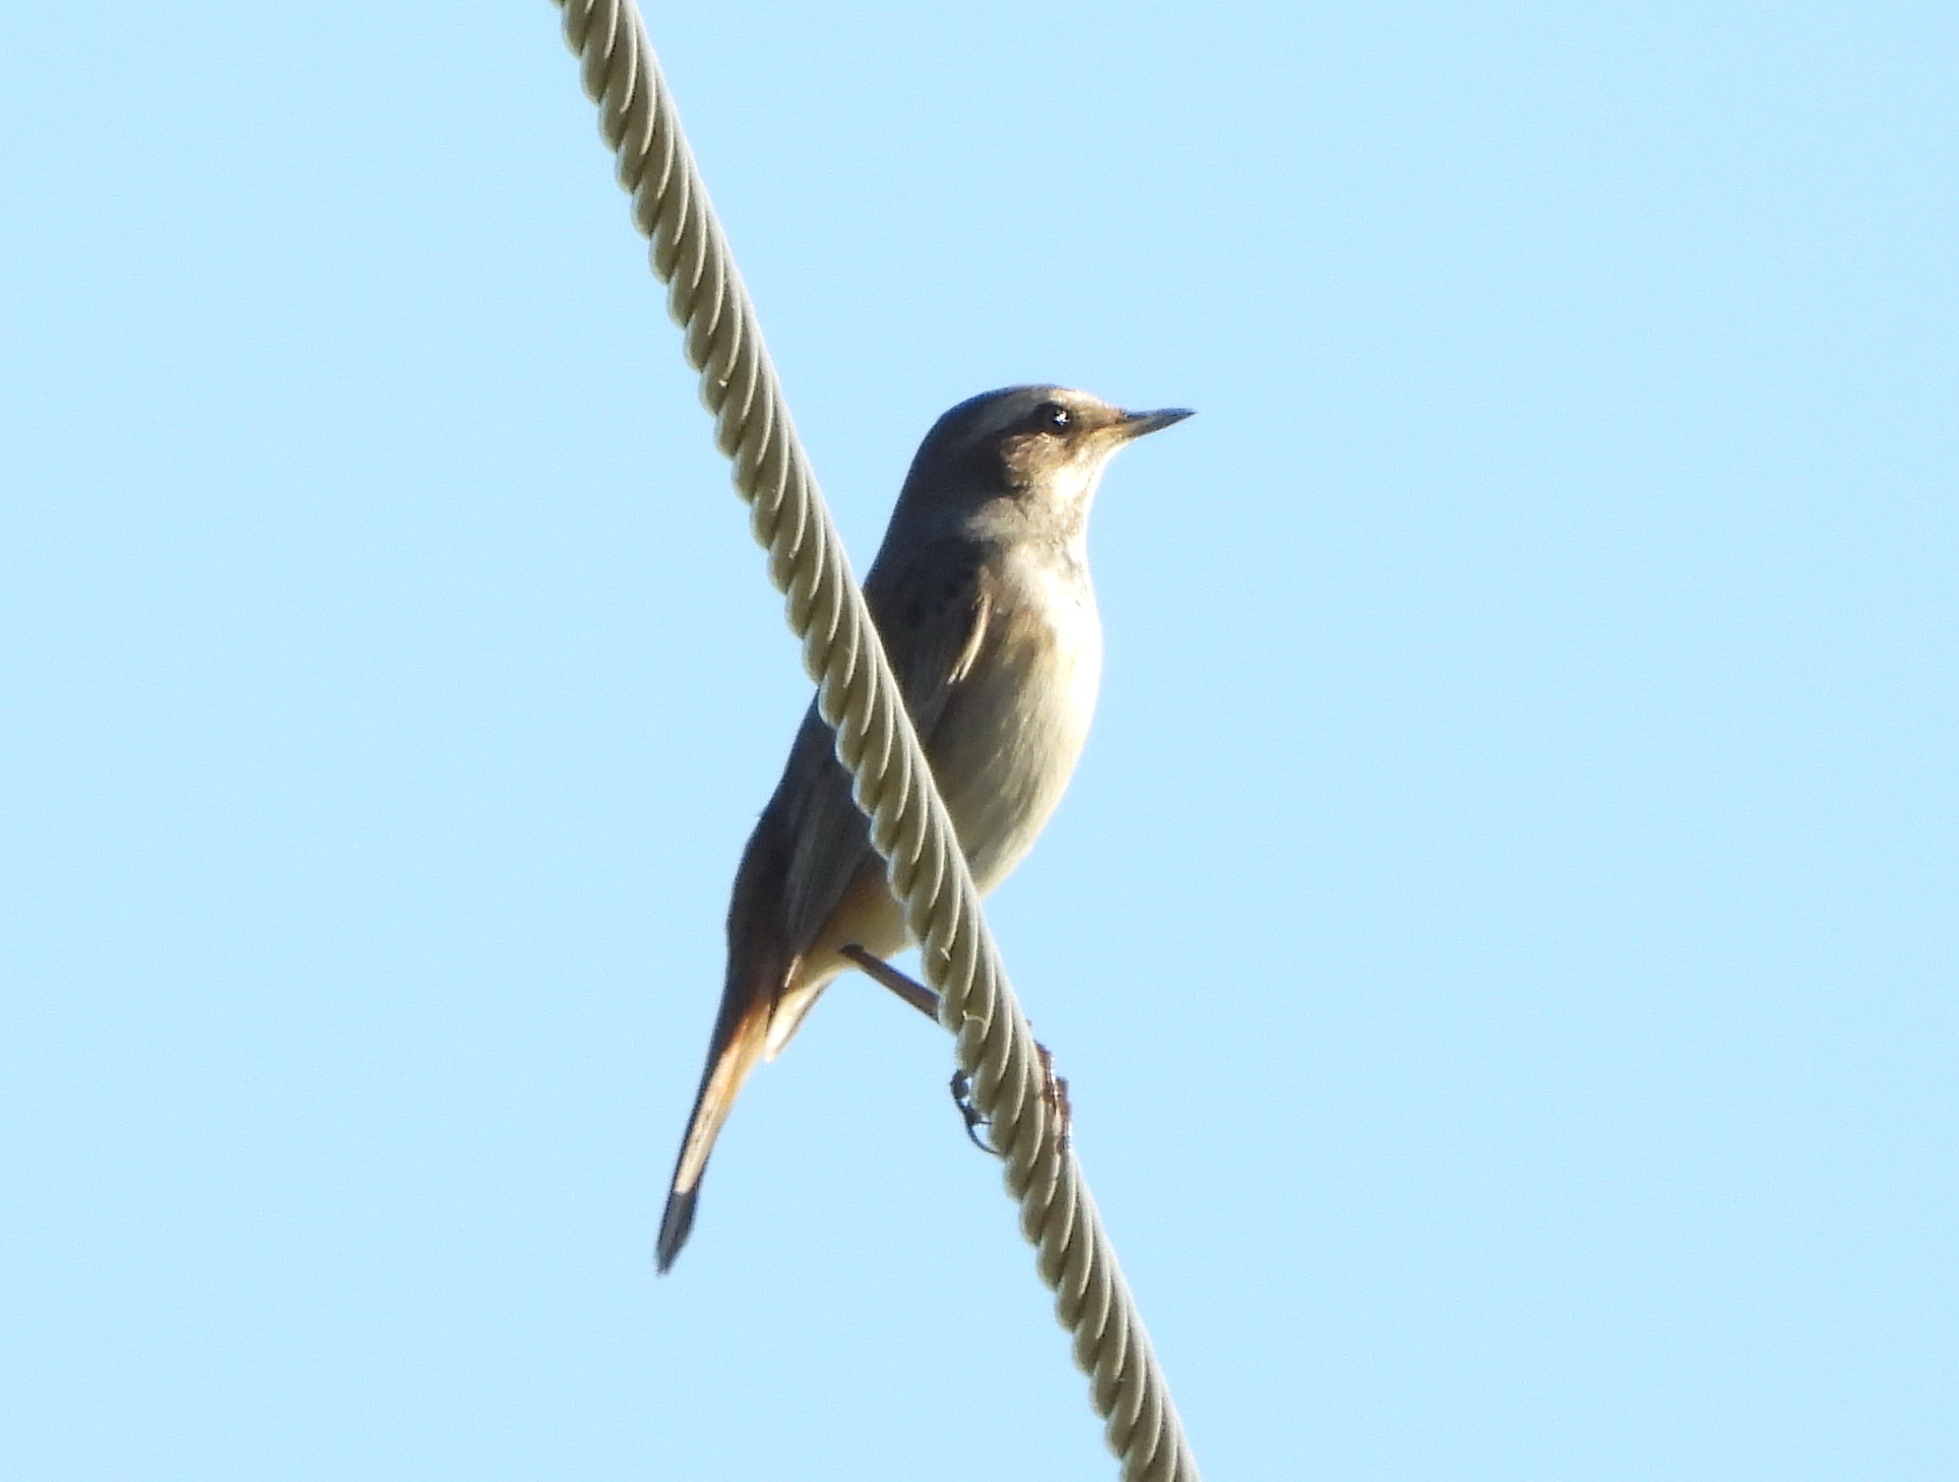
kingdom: Animalia
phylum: Chordata
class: Aves
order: Passeriformes
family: Muscicapidae
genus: Luscinia
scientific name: Luscinia svecica
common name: Bluethroat
